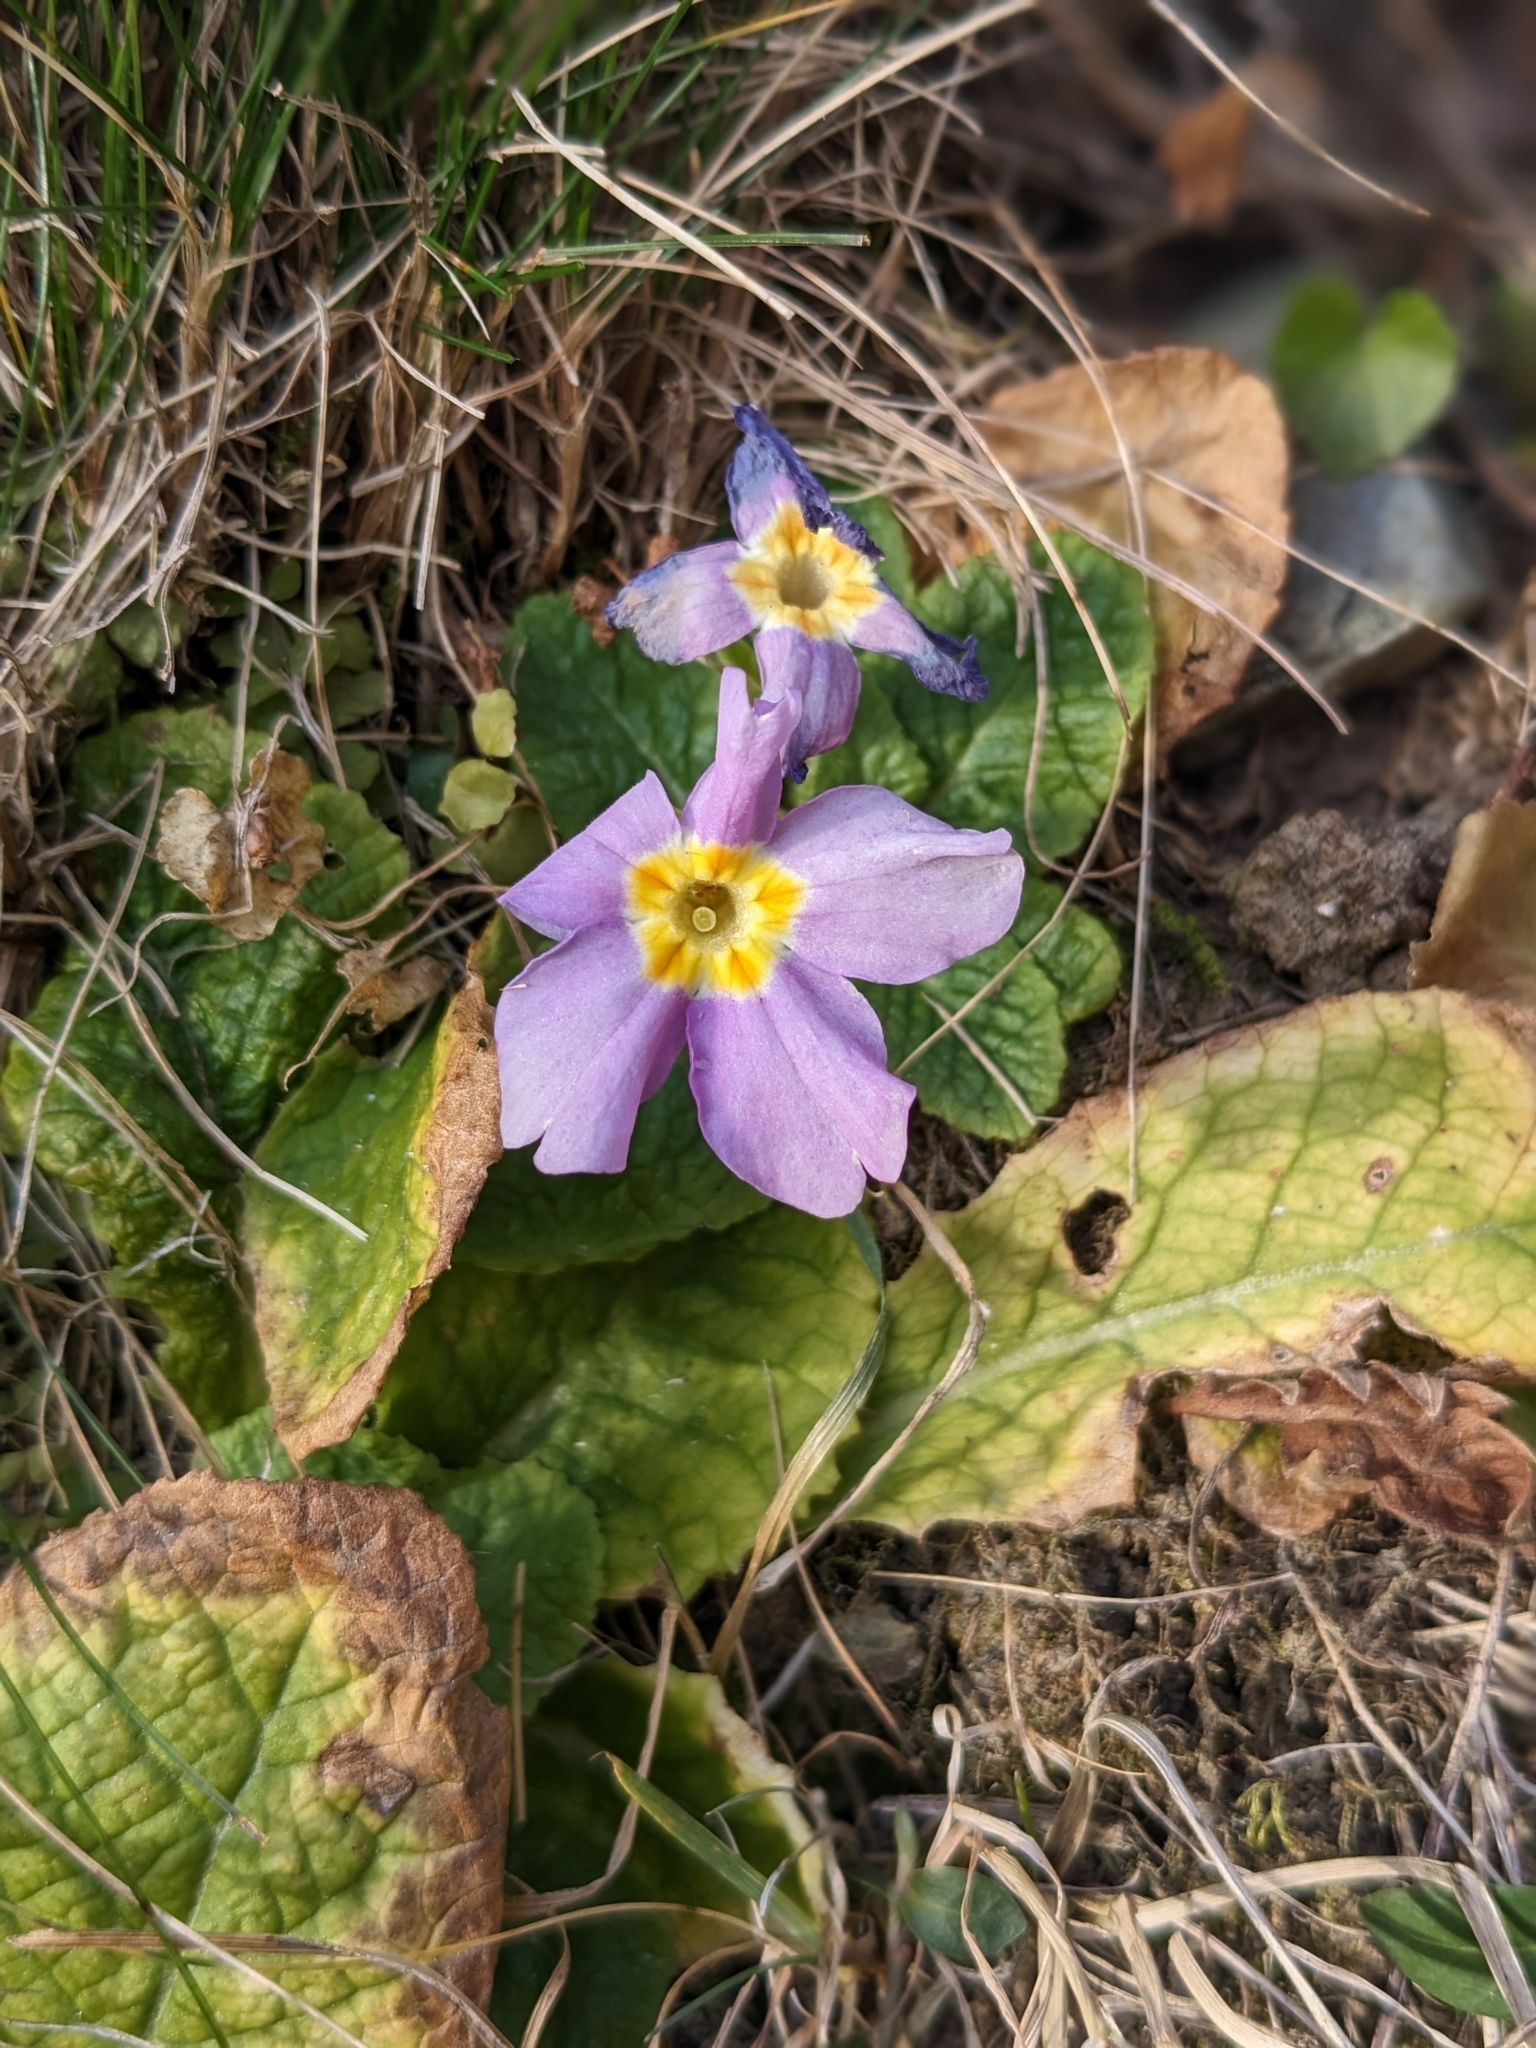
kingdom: Plantae
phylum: Tracheophyta
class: Magnoliopsida
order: Ericales
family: Primulaceae
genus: Primula
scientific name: Primula vulgaris
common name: Primrose
